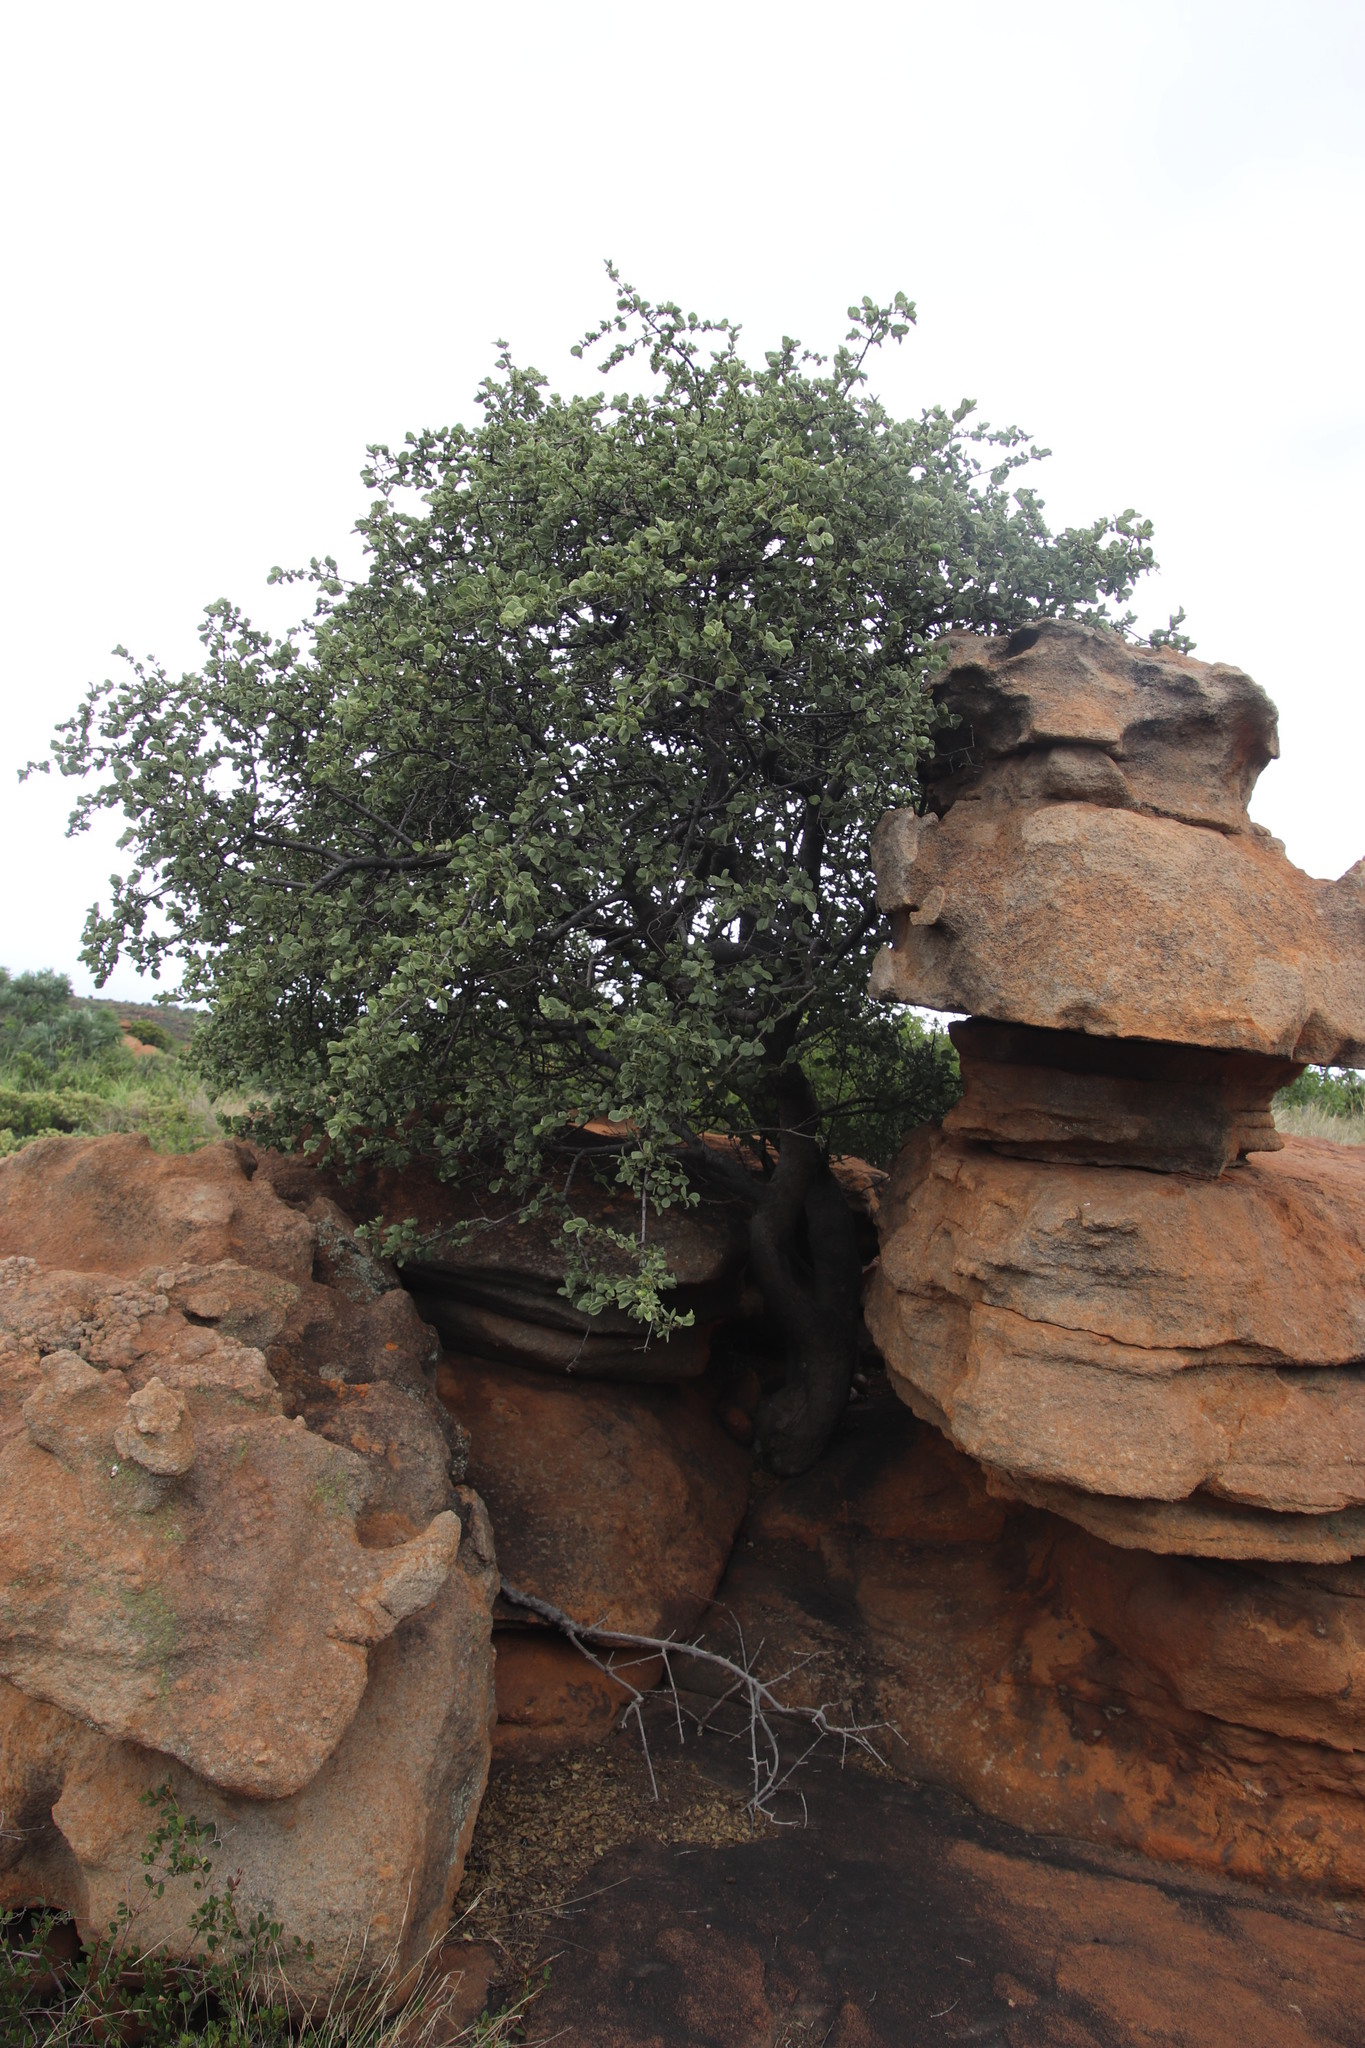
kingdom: Plantae
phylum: Tracheophyta
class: Magnoliopsida
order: Gentianales
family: Rubiaceae
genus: Vangueria
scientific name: Vangueria parvifolia
